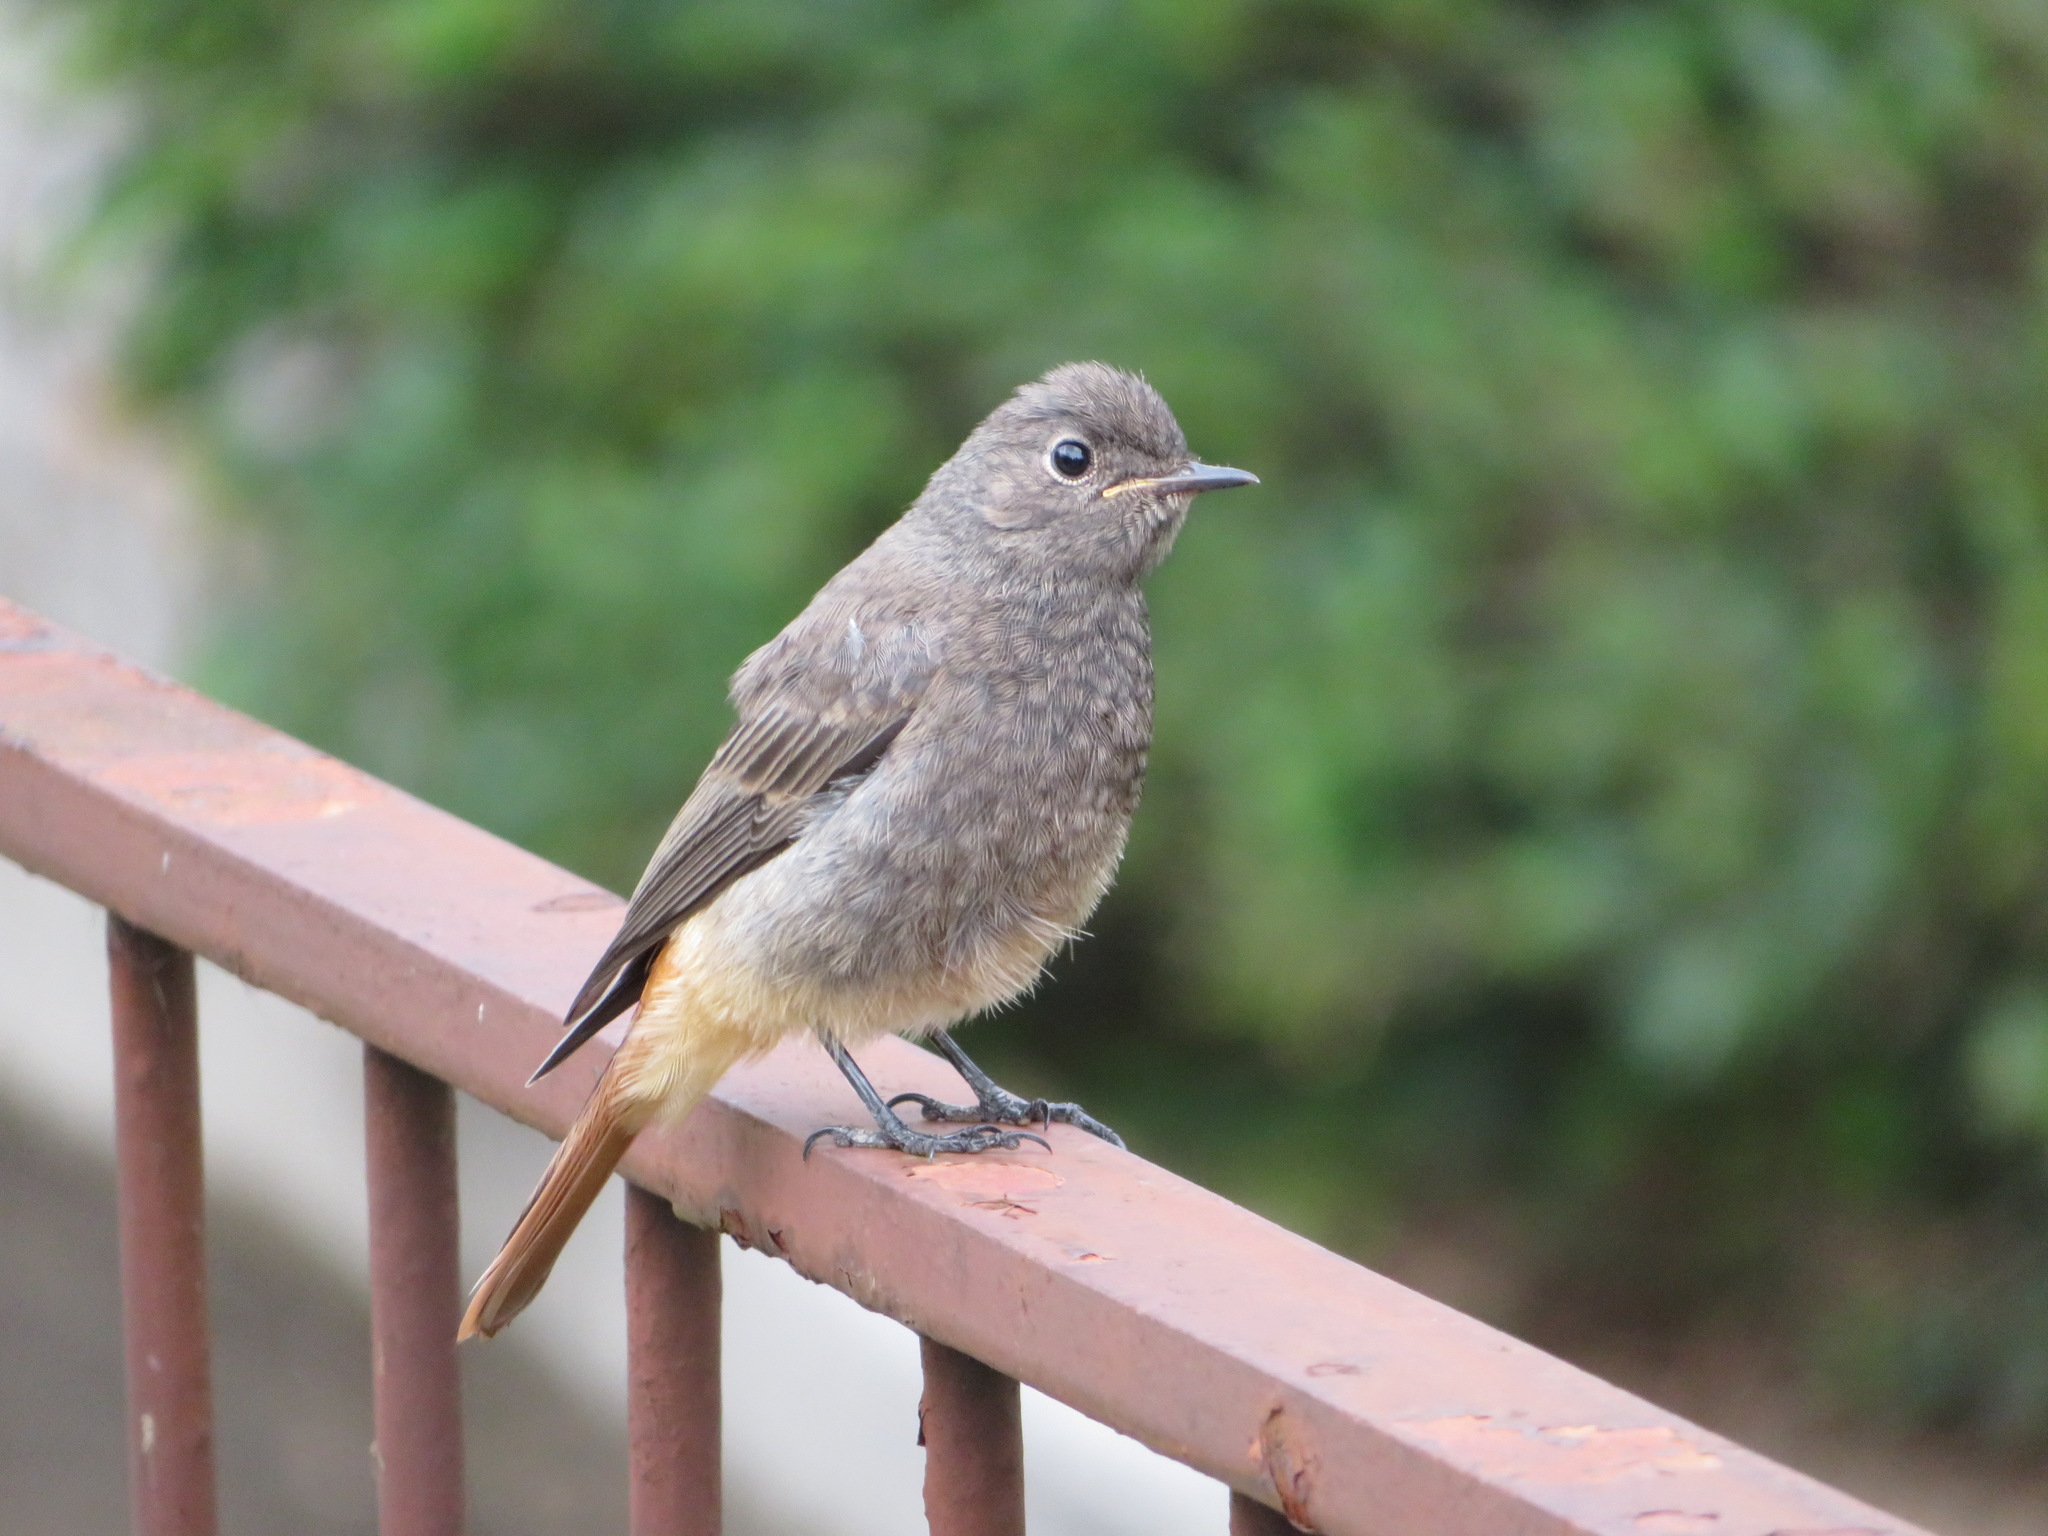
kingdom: Animalia
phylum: Chordata
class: Aves
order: Passeriformes
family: Muscicapidae
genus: Phoenicurus
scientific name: Phoenicurus ochruros
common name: Black redstart
